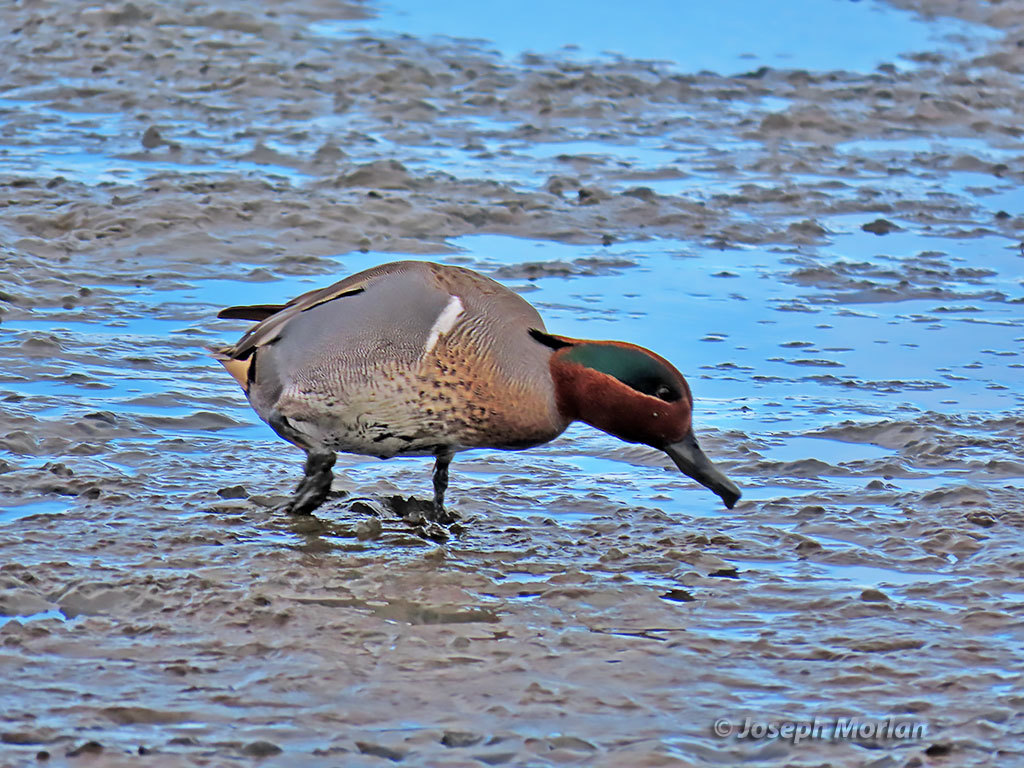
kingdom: Animalia
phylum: Chordata
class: Aves
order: Anseriformes
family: Anatidae
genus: Anas
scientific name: Anas crecca
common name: Eurasian teal
